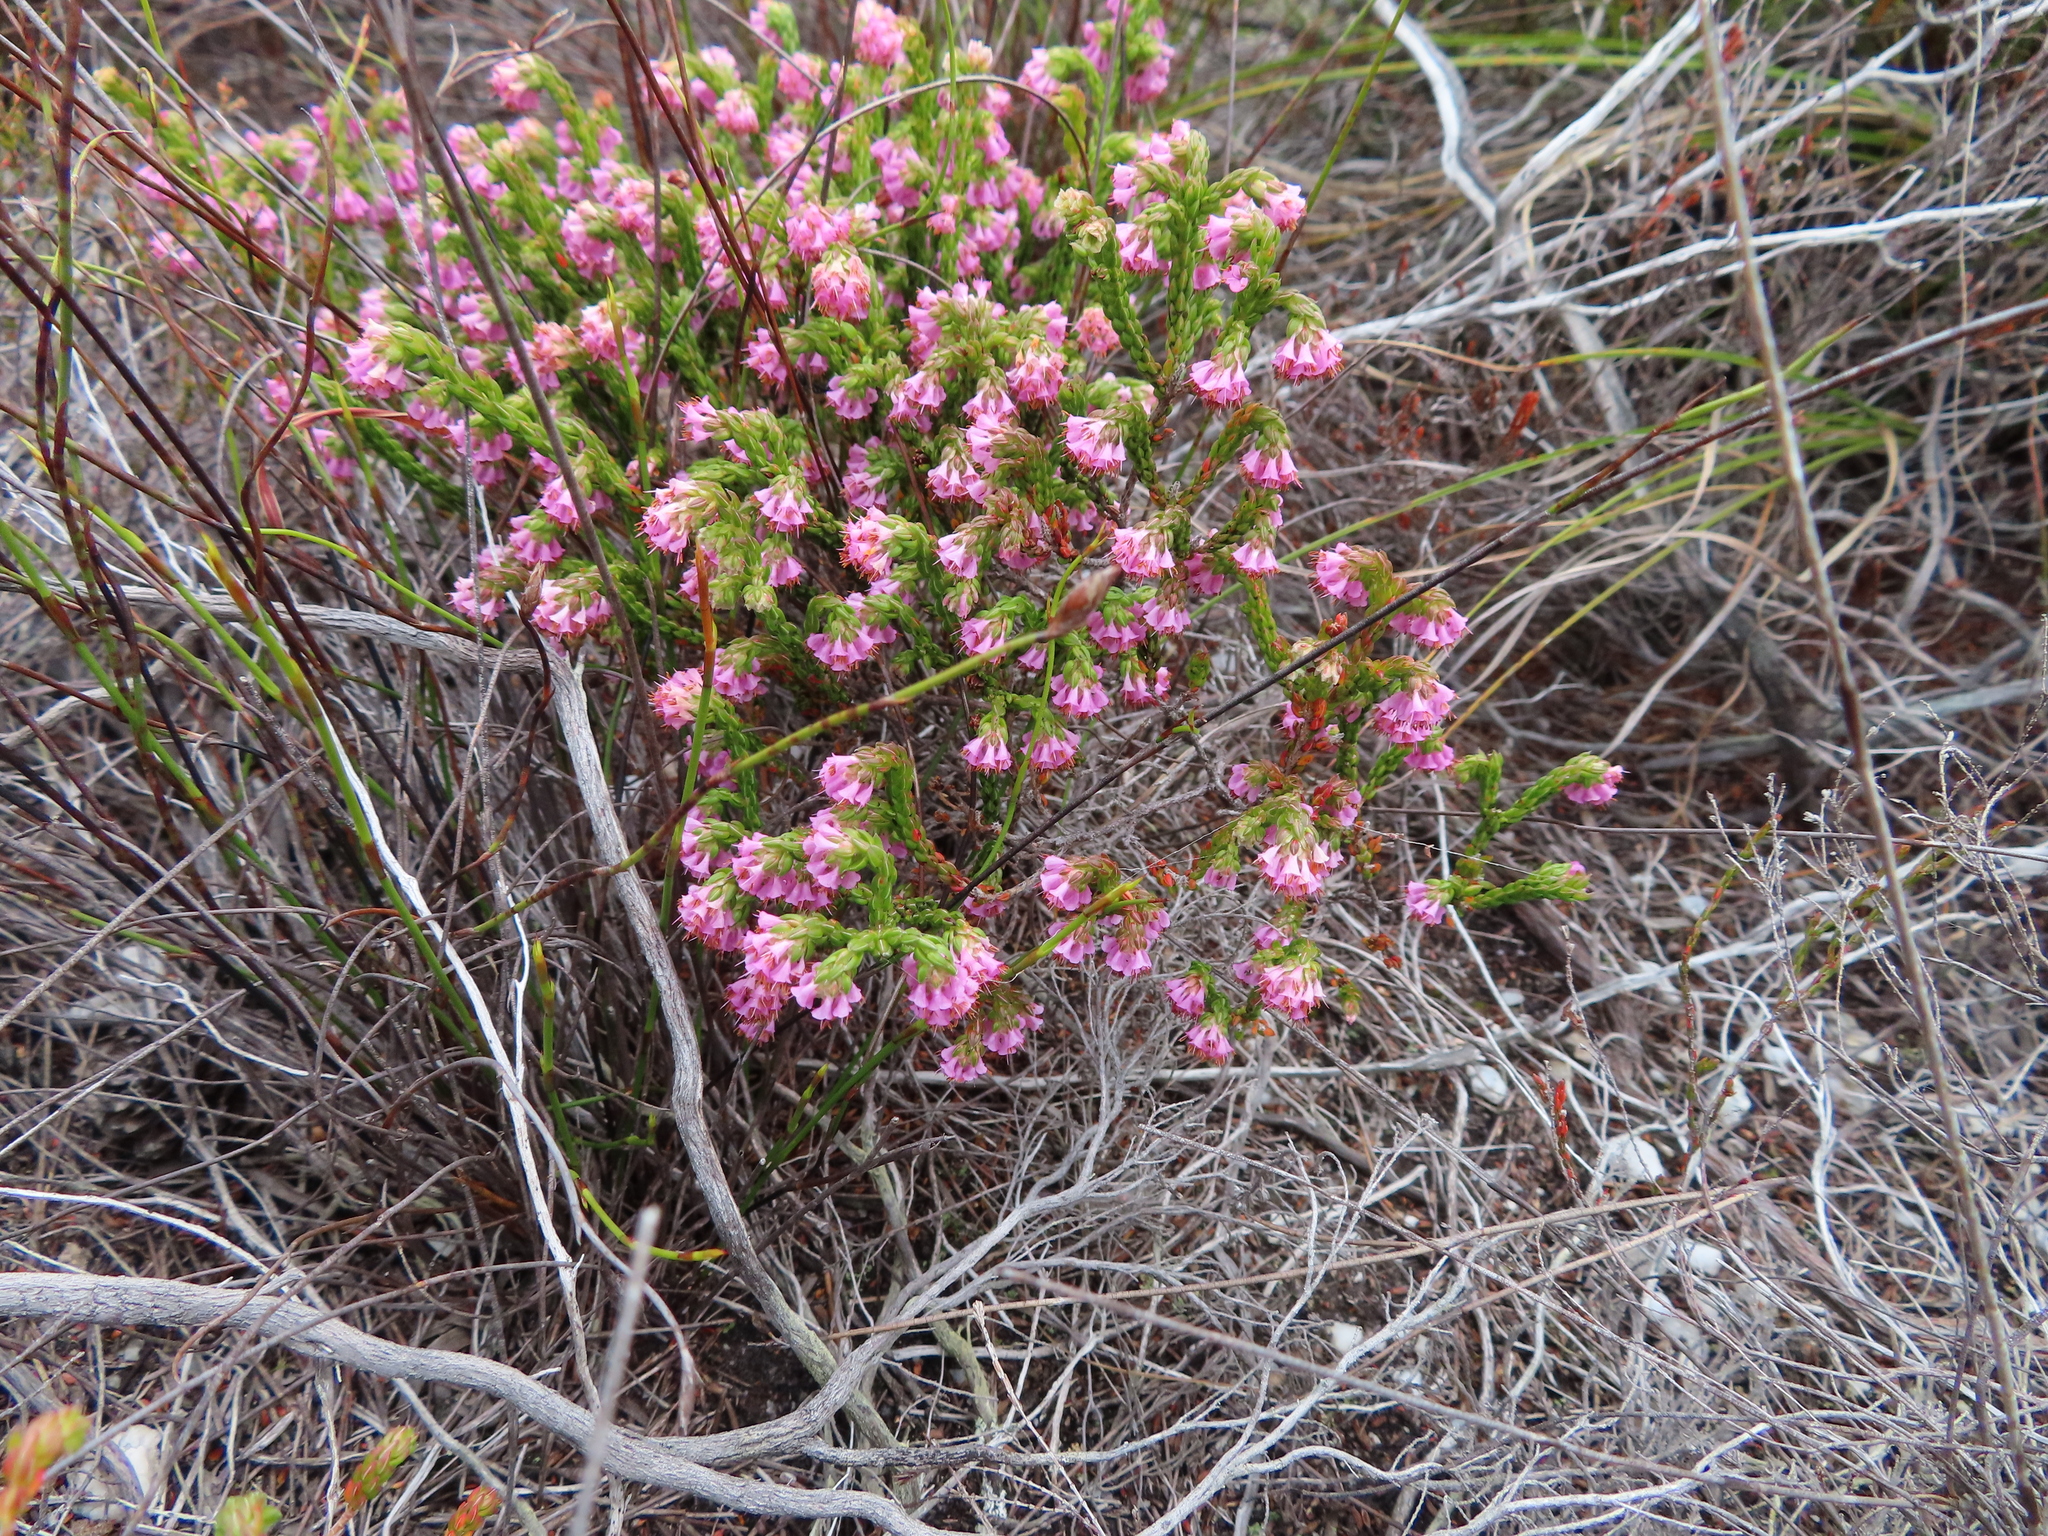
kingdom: Plantae
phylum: Tracheophyta
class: Magnoliopsida
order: Ericales
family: Ericaceae
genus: Erica
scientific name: Erica labialis
